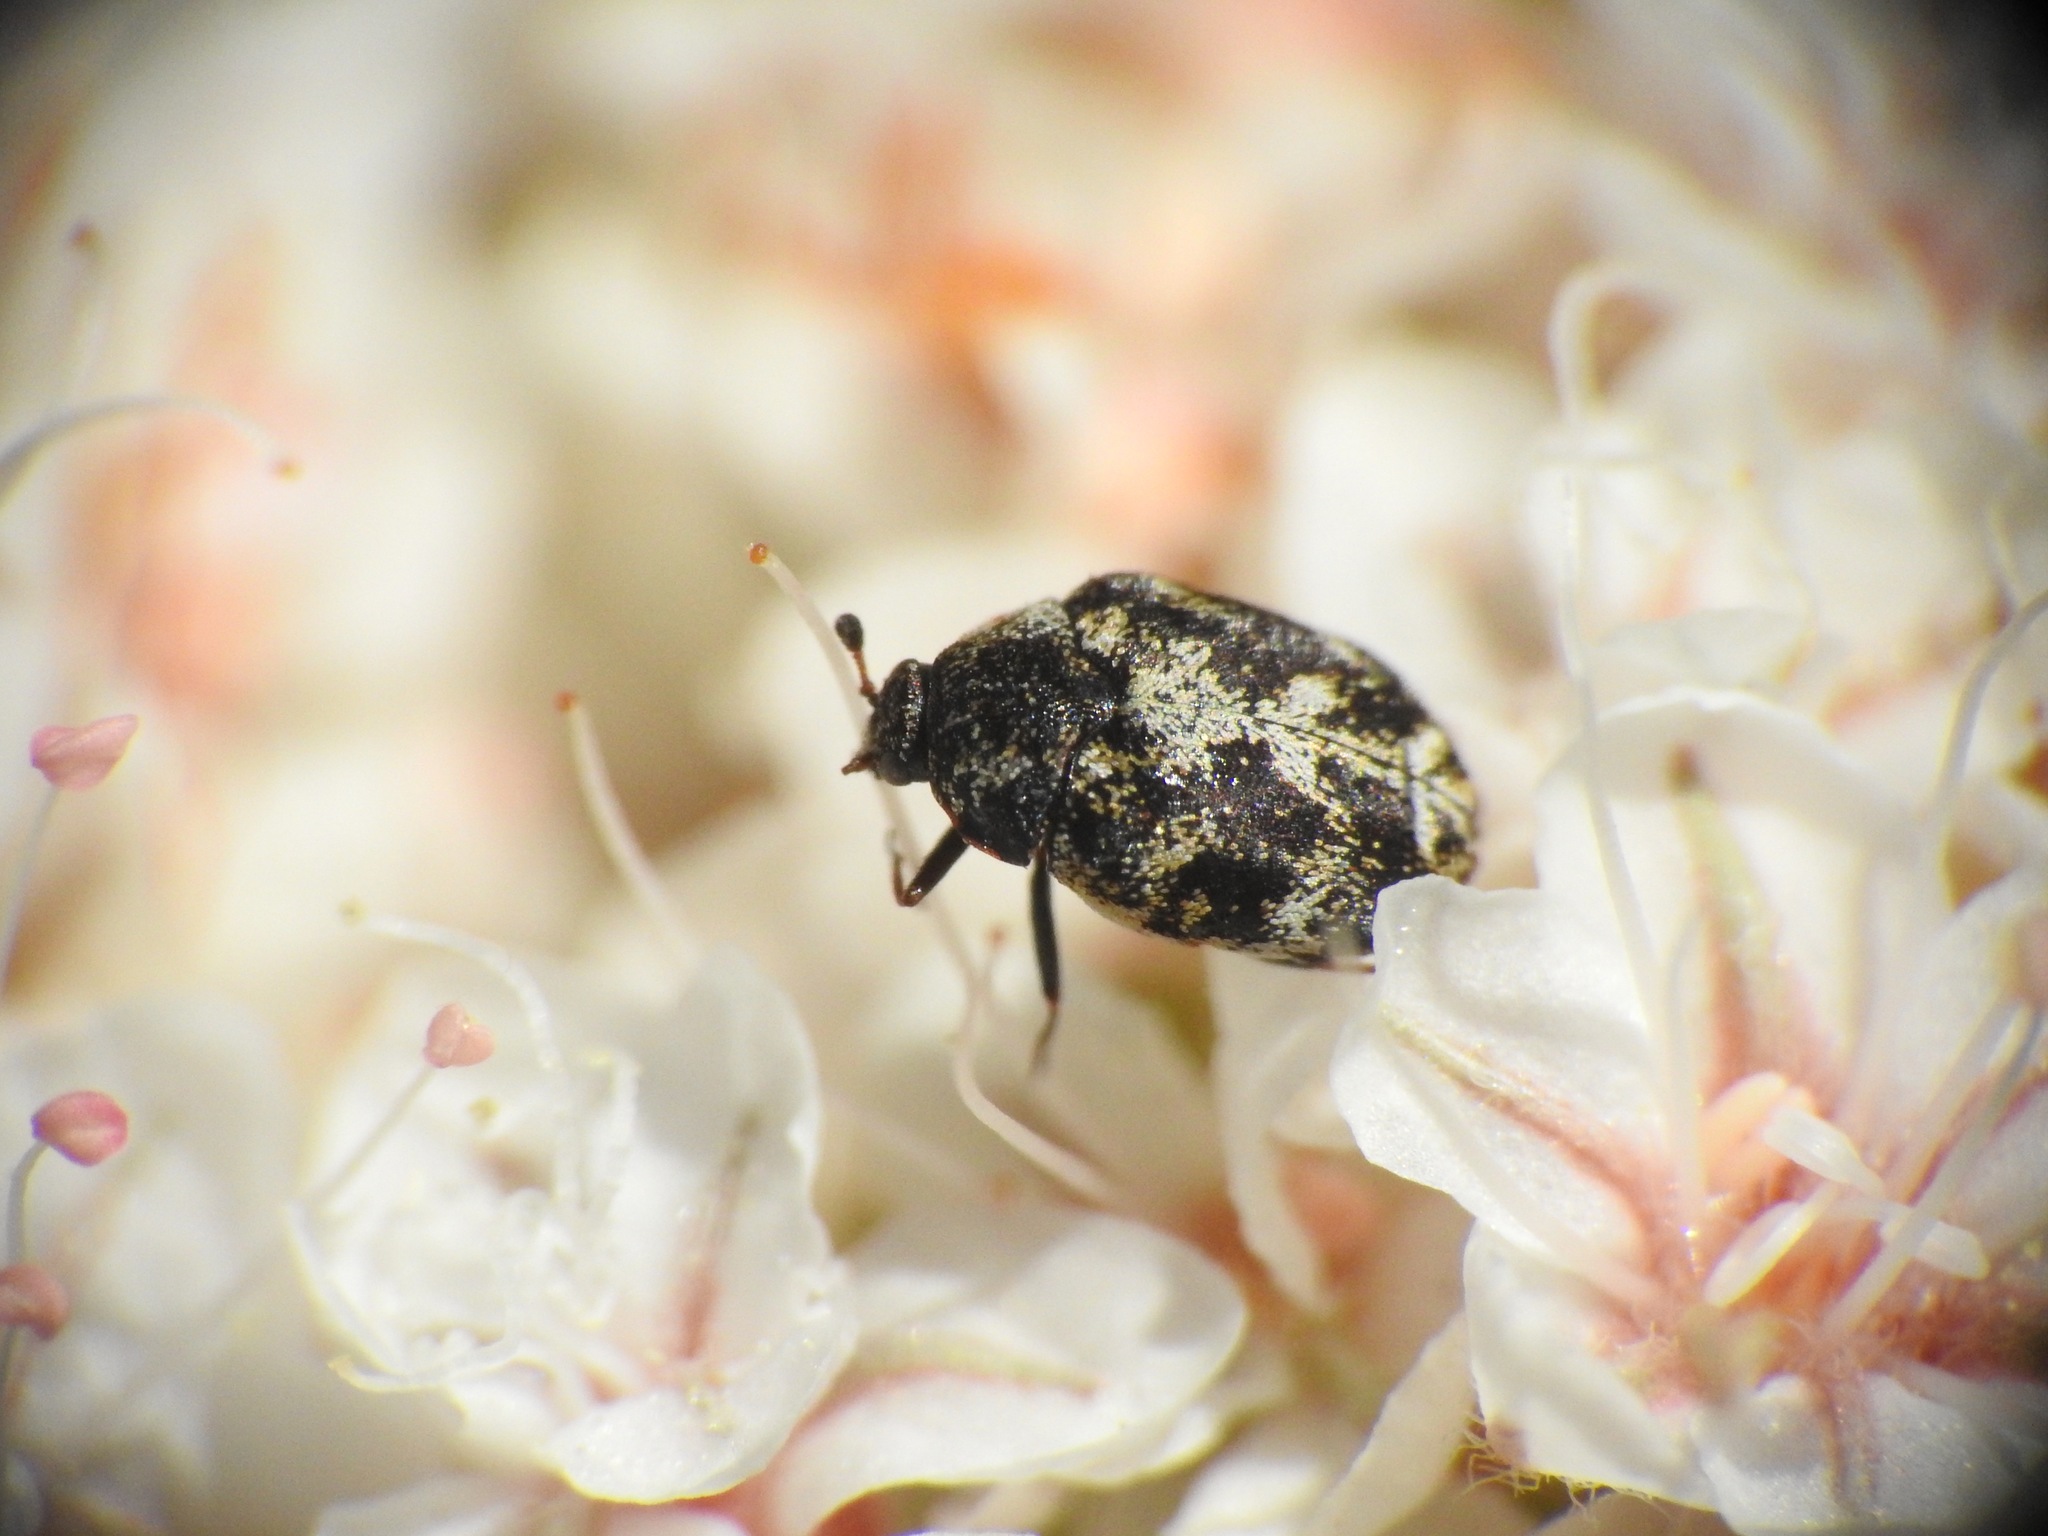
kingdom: Animalia
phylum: Arthropoda
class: Insecta
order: Coleoptera
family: Dermestidae
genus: Anthrenus
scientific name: Anthrenus lepidus
